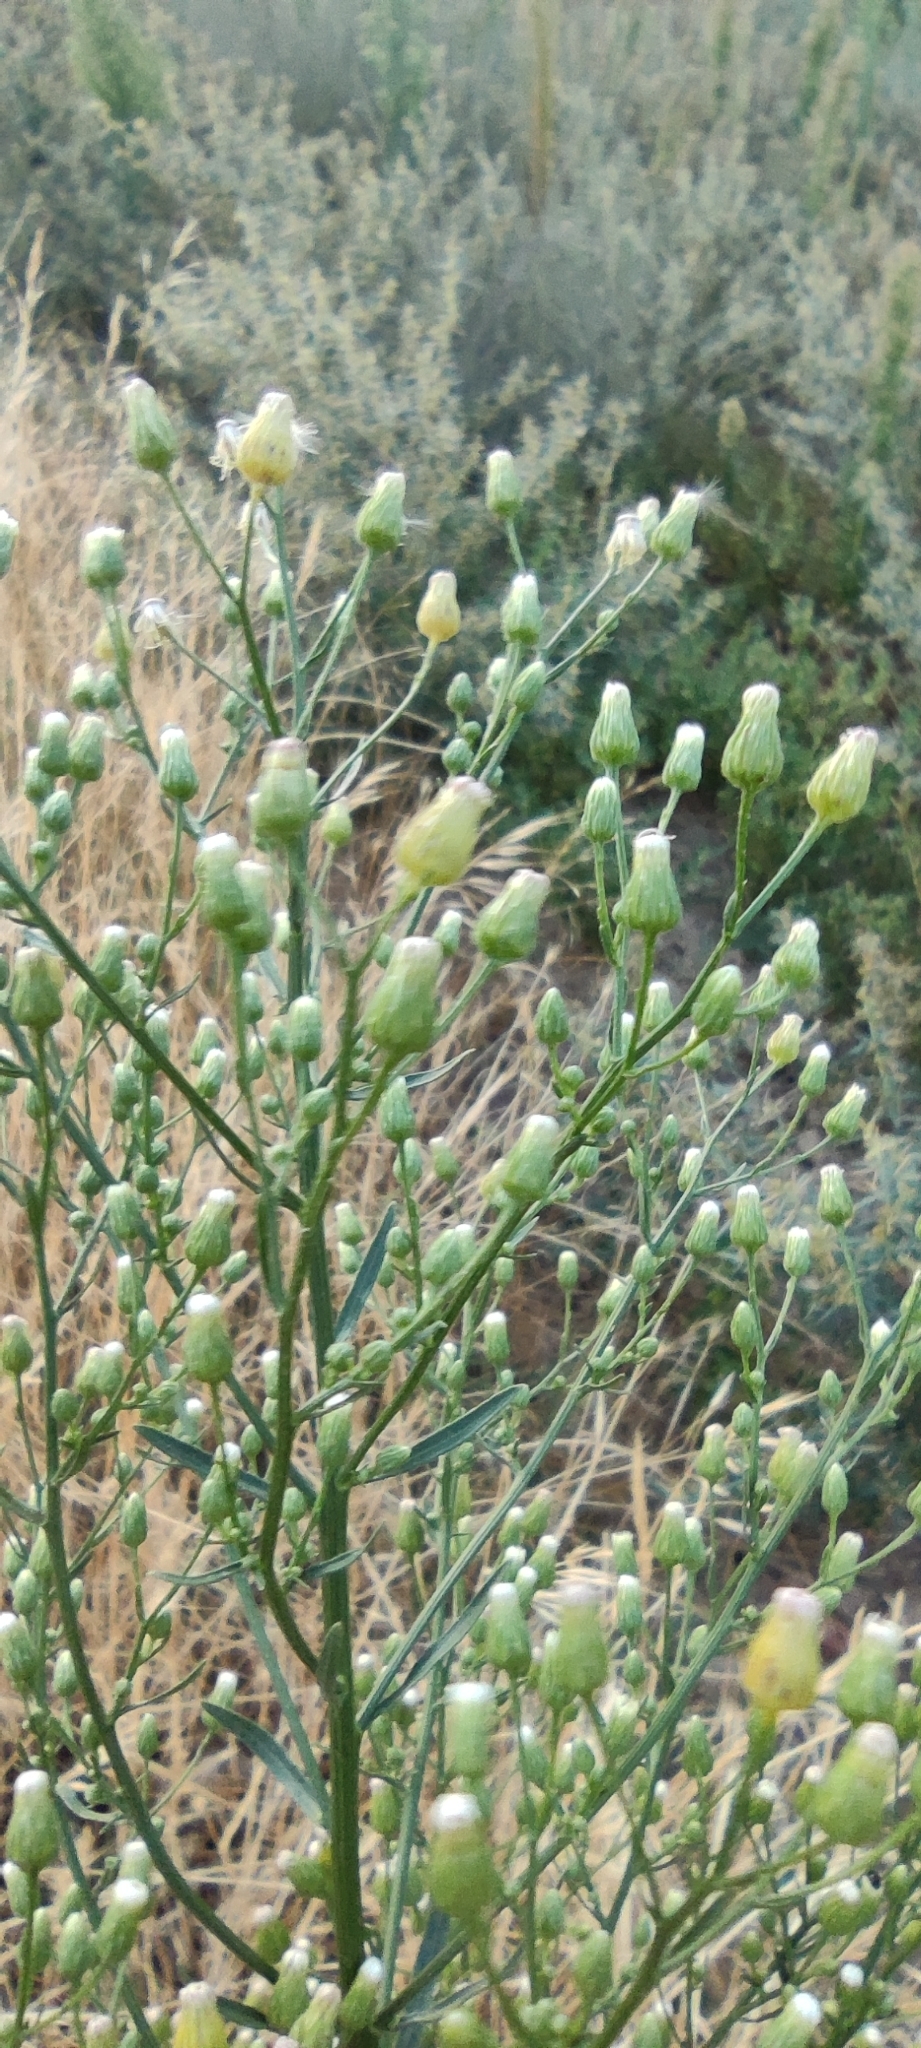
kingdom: Plantae
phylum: Tracheophyta
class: Magnoliopsida
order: Asterales
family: Asteraceae
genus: Erigeron
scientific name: Erigeron canadensis
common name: Canadian fleabane
